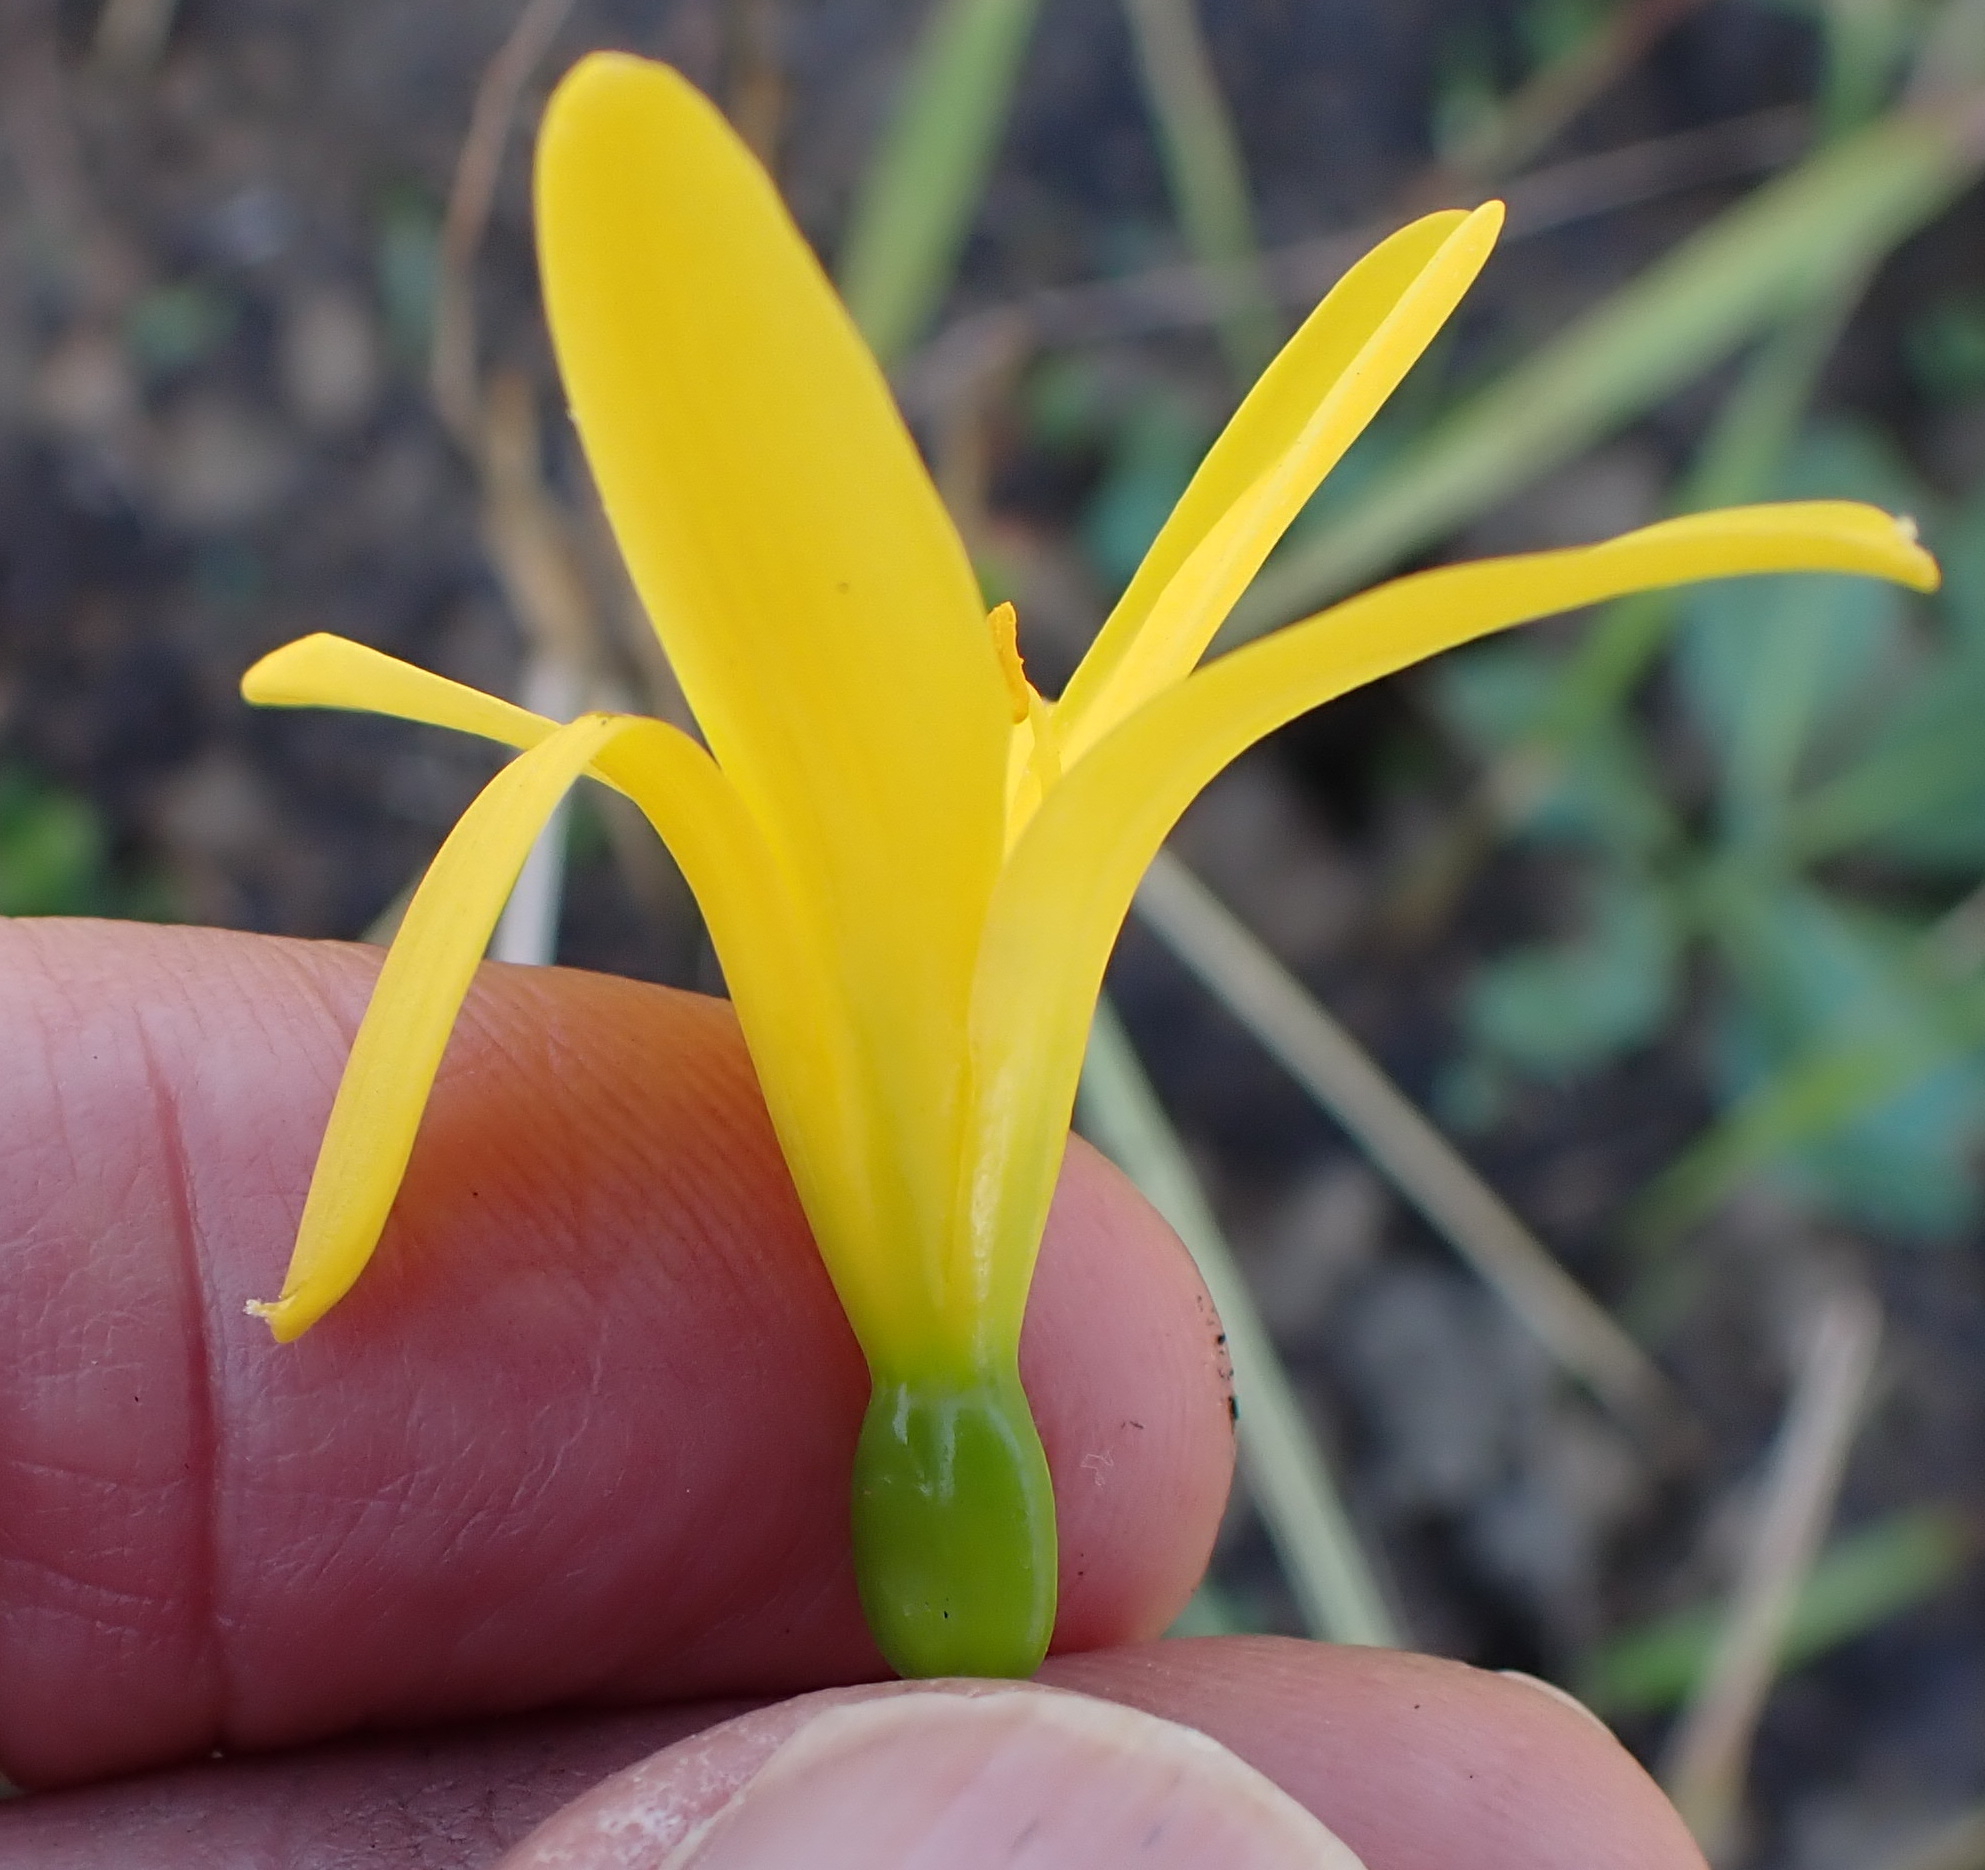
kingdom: Plantae
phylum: Tracheophyta
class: Liliopsida
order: Asparagales
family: Amaryllidaceae
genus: Cyrtanthus
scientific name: Cyrtanthus breviflorus
